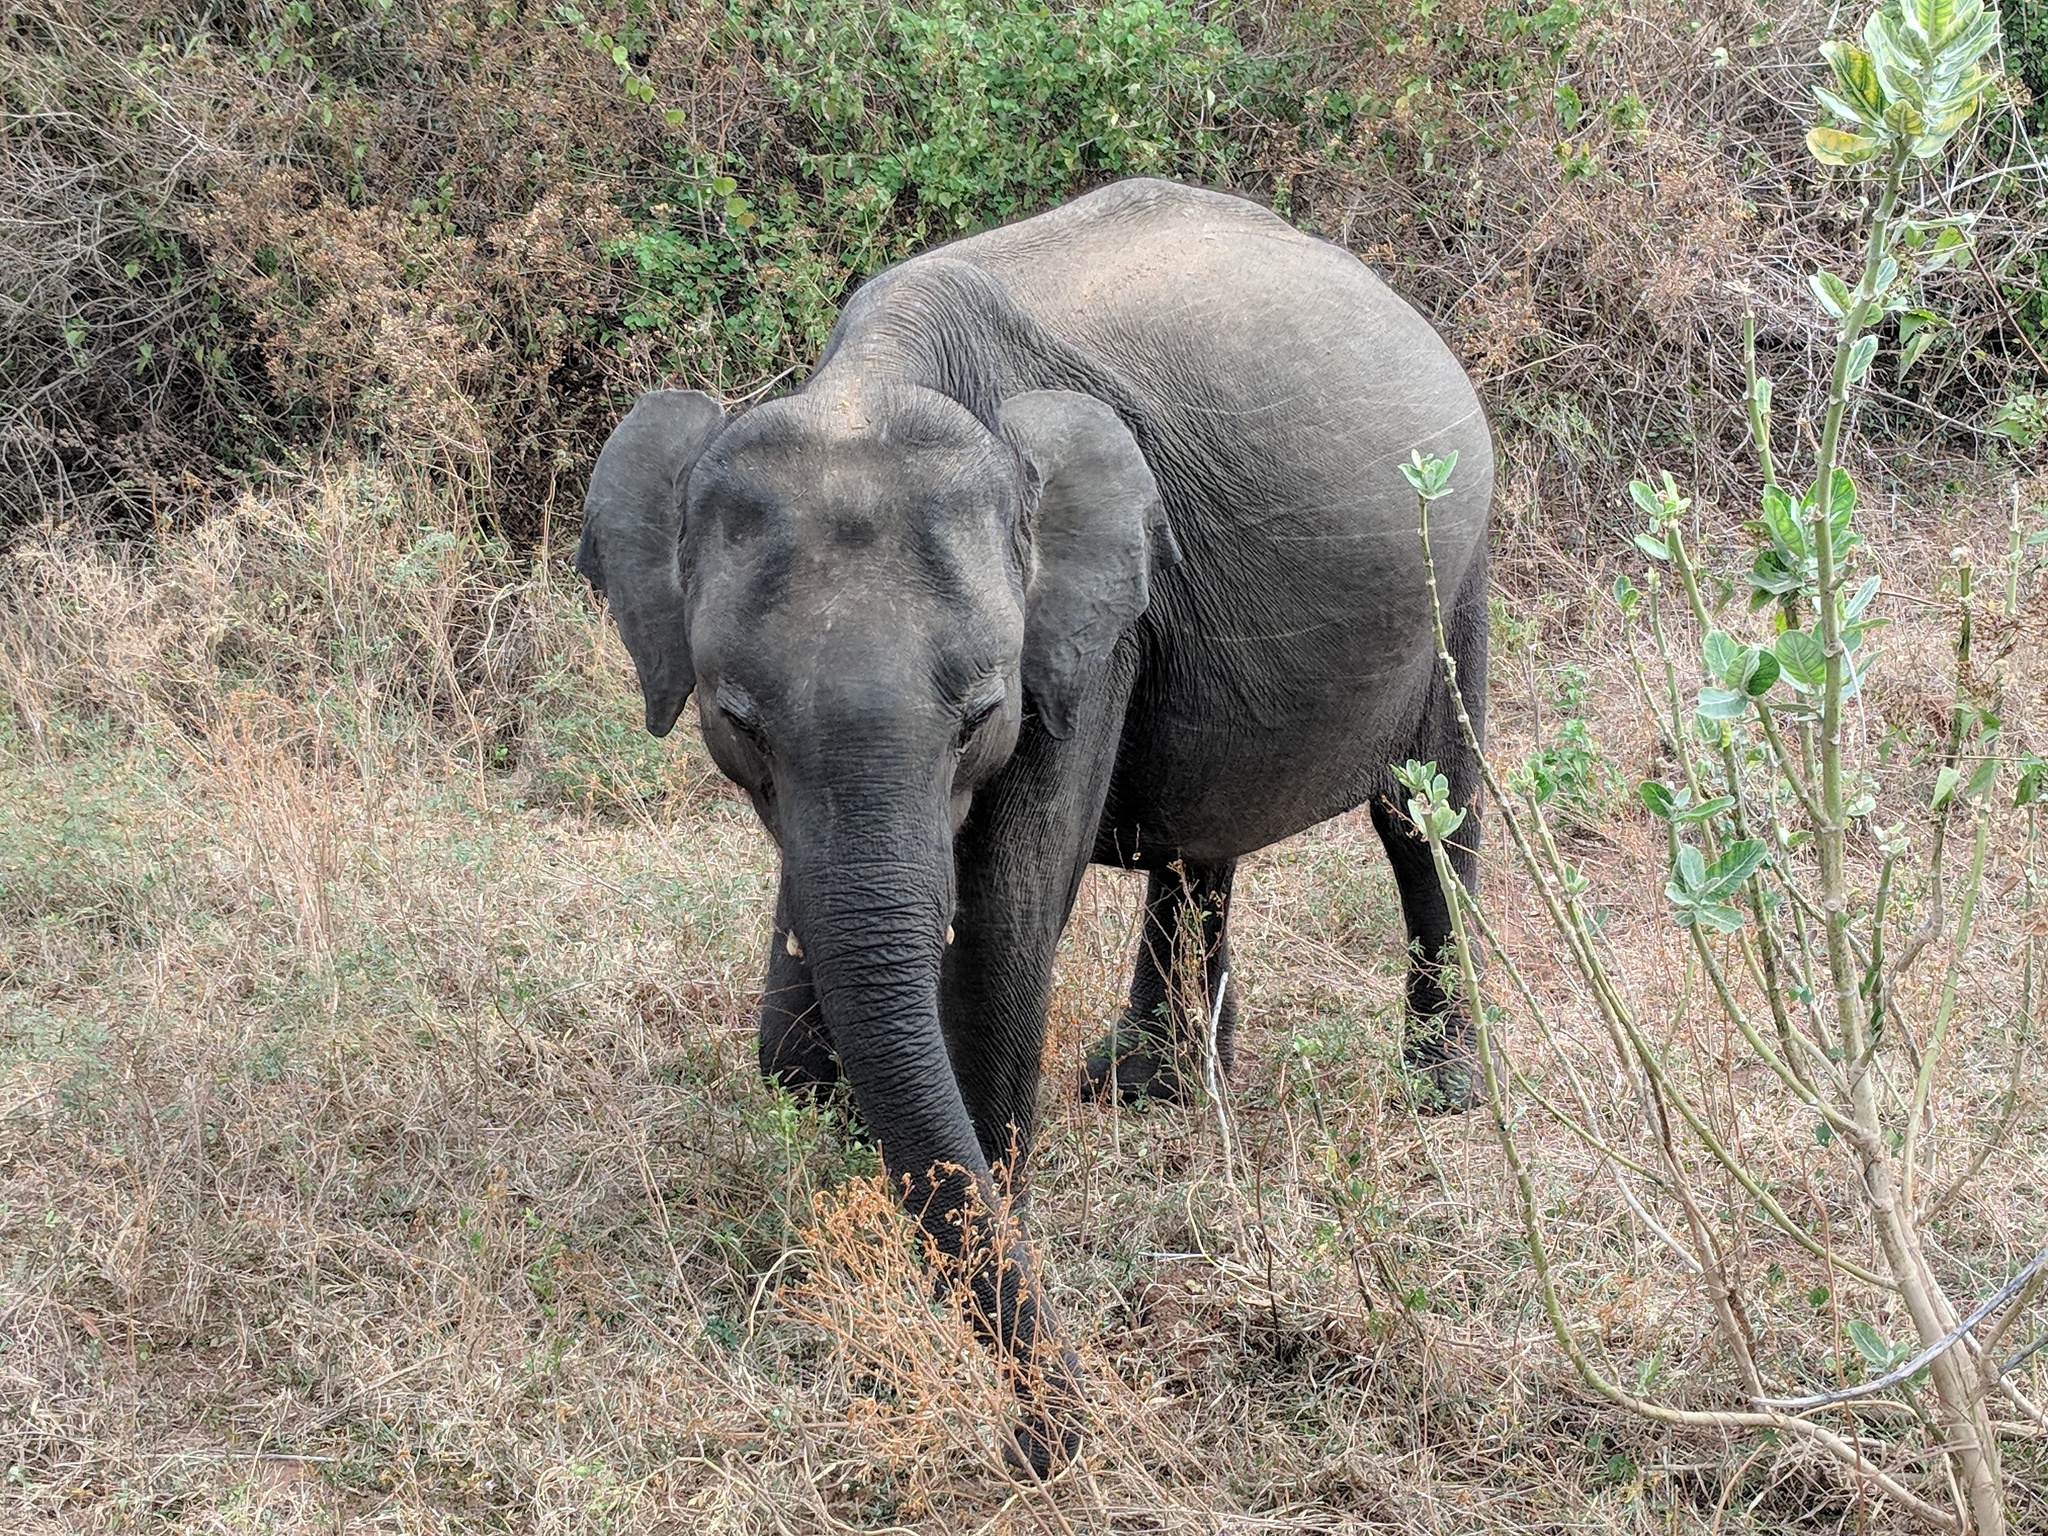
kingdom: Animalia
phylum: Chordata
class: Mammalia
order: Proboscidea
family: Elephantidae
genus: Elephas
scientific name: Elephas maximus
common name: Asian elephant
